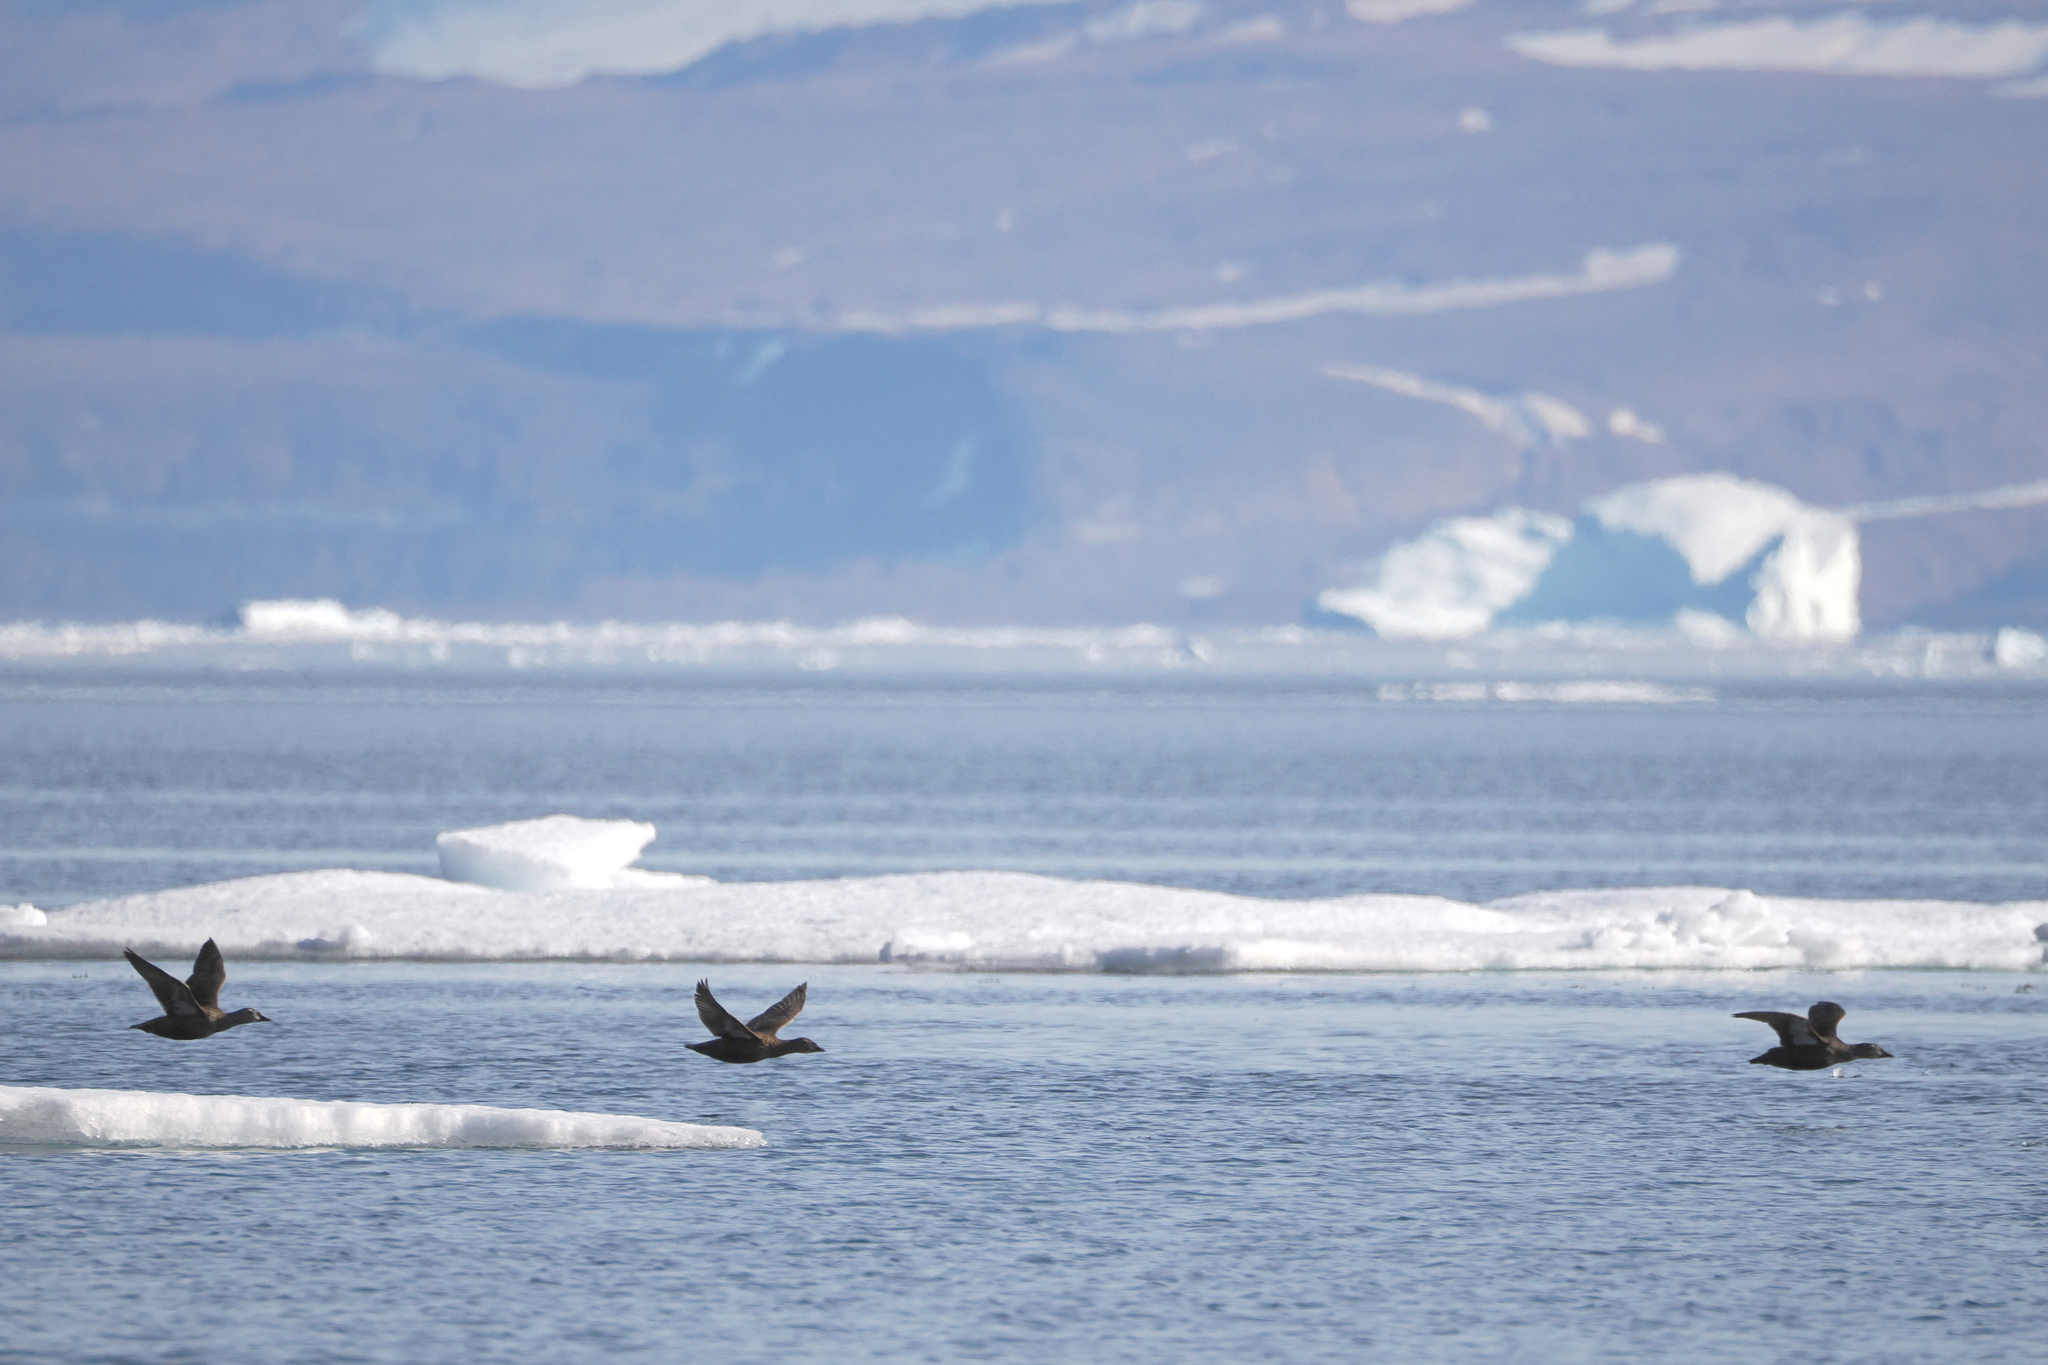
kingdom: Animalia
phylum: Chordata
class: Aves
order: Anseriformes
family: Anatidae
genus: Somateria
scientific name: Somateria spectabilis
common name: King eider
